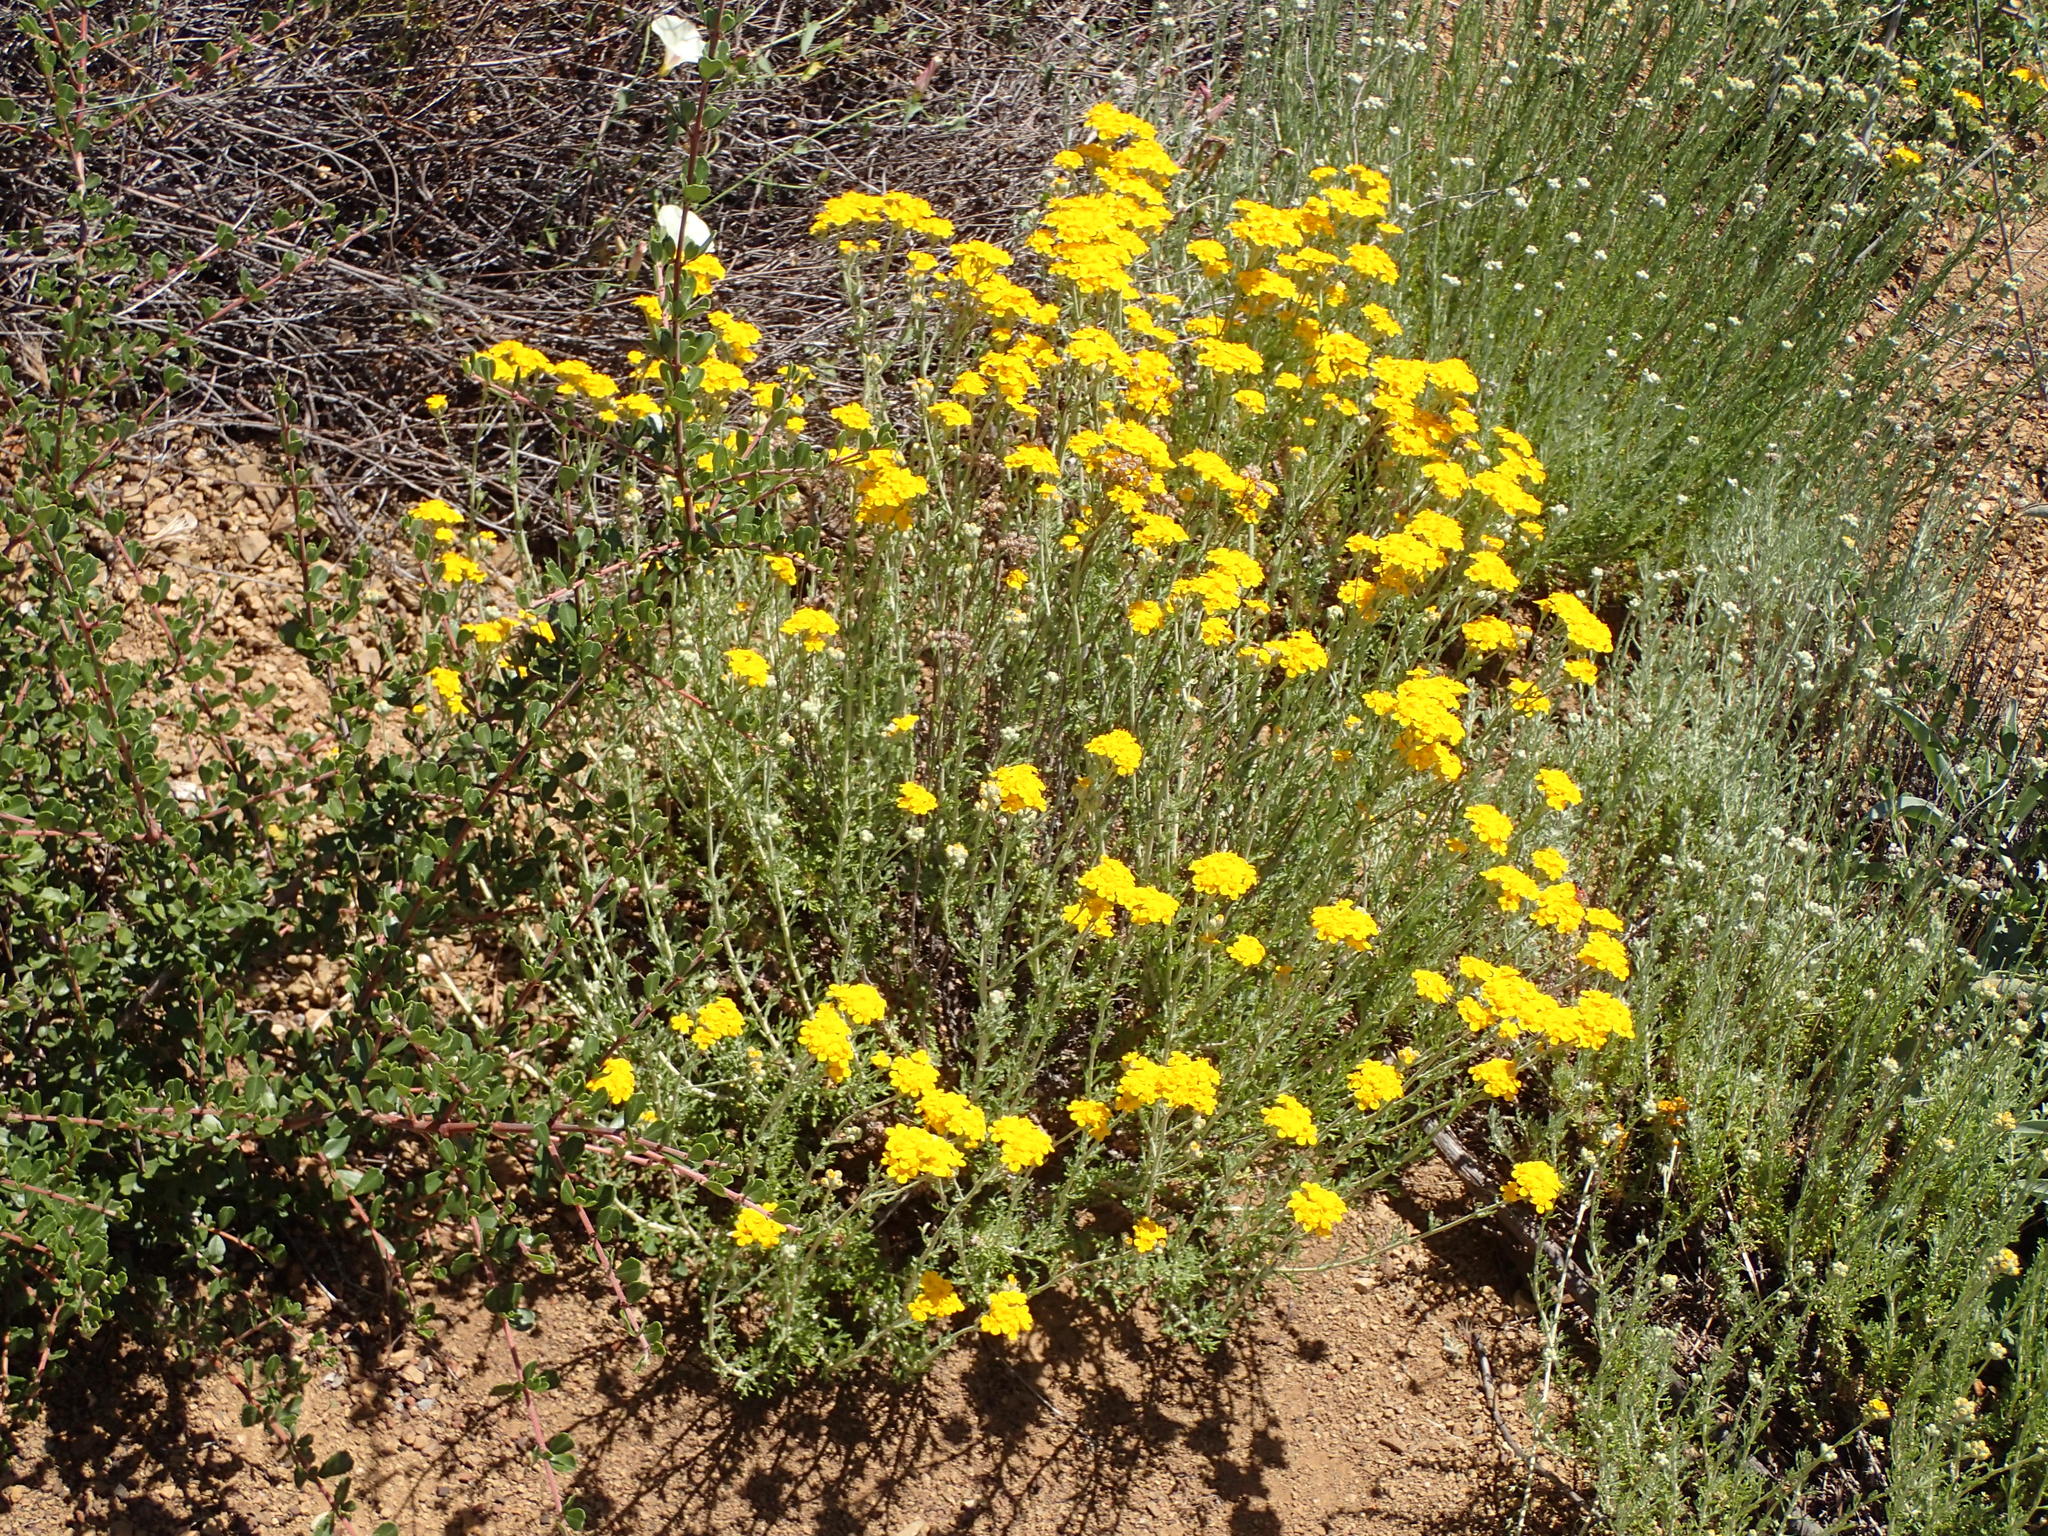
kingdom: Plantae
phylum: Tracheophyta
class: Magnoliopsida
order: Asterales
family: Asteraceae
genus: Eriophyllum
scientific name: Eriophyllum confertiflorum
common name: Golden-yarrow
